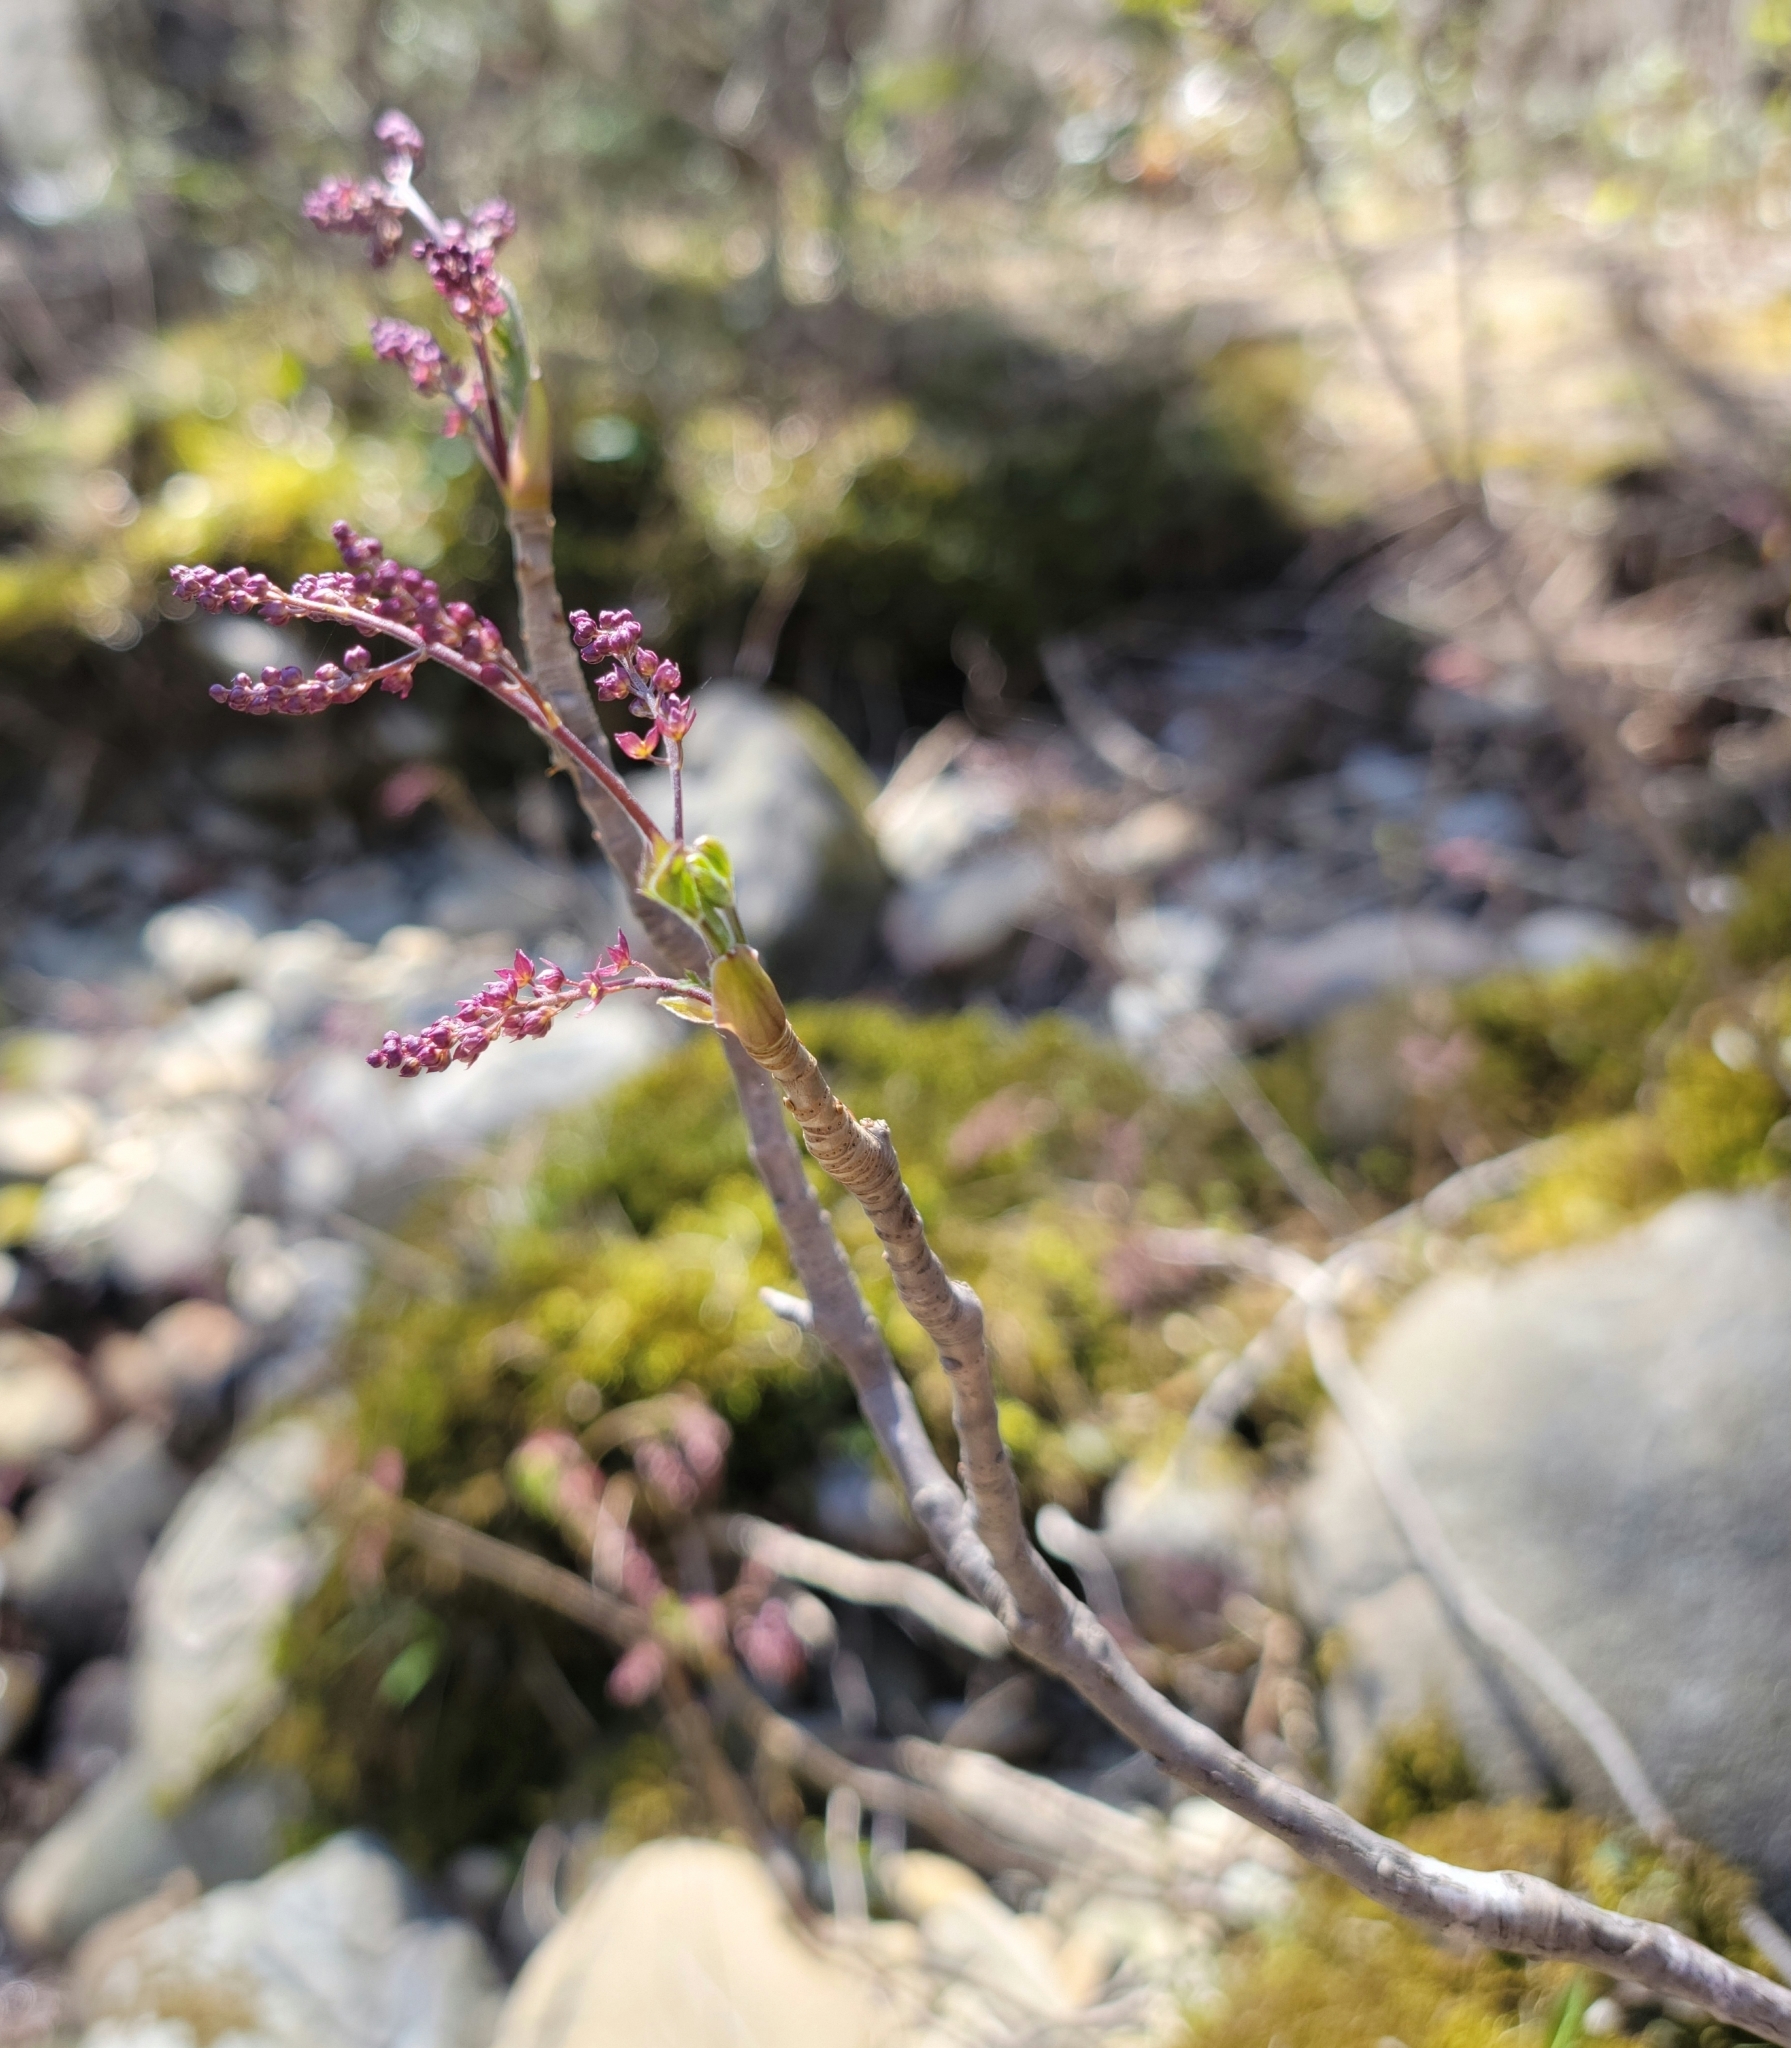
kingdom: Plantae
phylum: Tracheophyta
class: Magnoliopsida
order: Ranunculales
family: Ranunculaceae
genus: Xanthorhiza
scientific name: Xanthorhiza simplicissima
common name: Yellowroot
